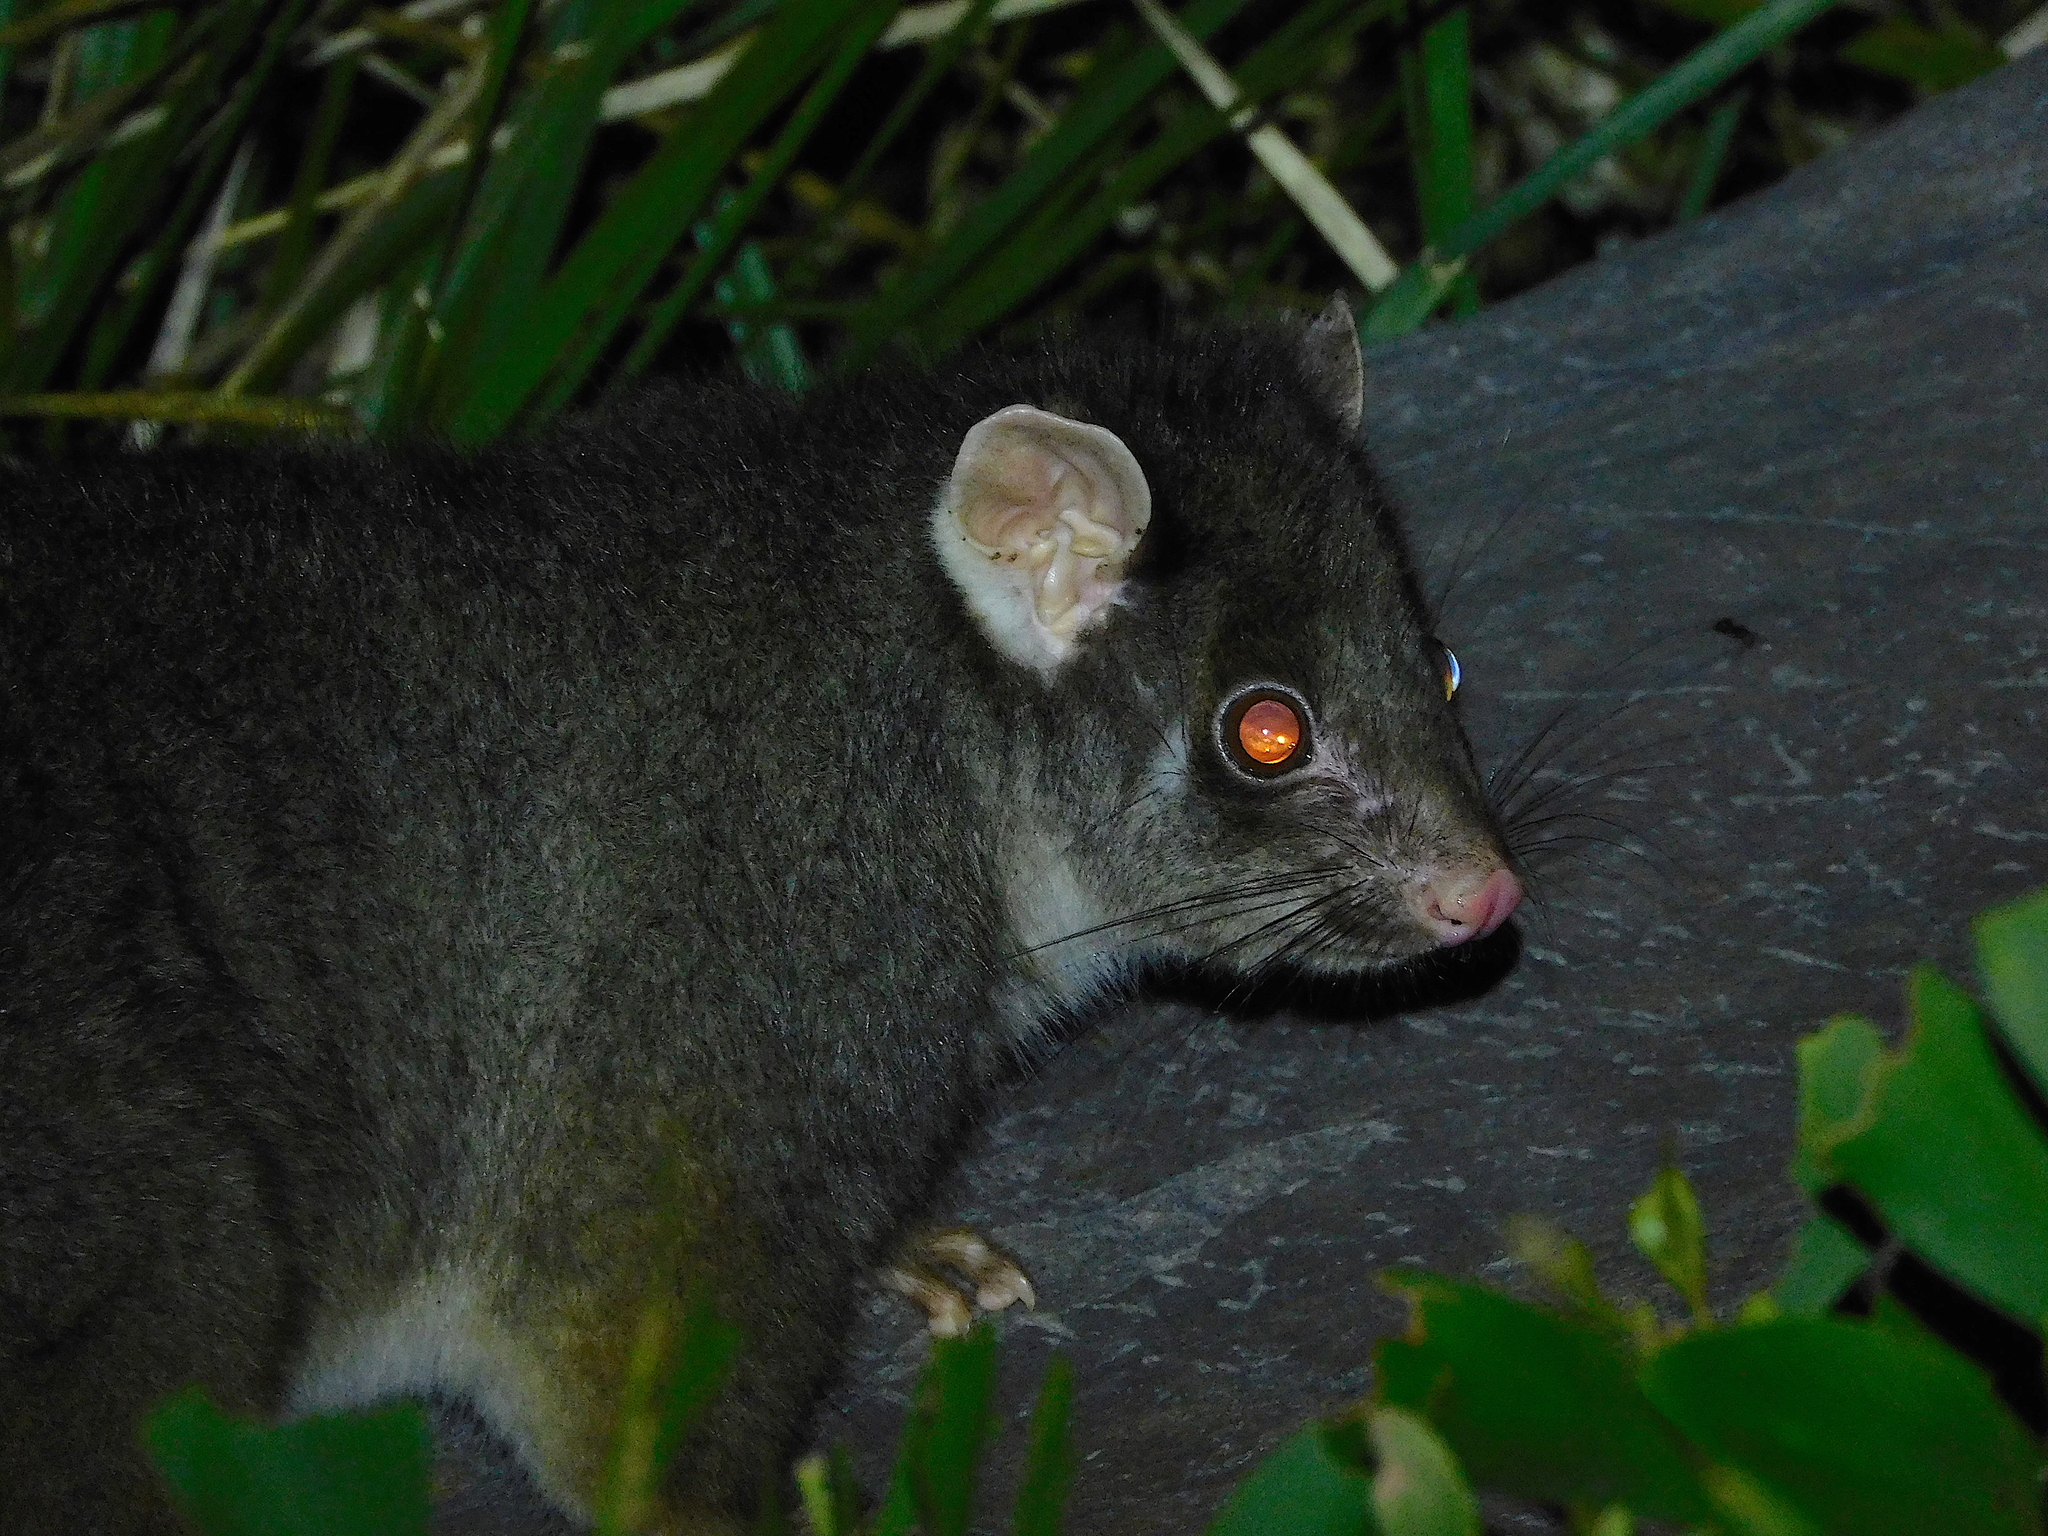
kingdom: Animalia
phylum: Chordata
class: Mammalia
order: Diprotodontia
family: Pseudocheiridae
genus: Pseudocheirus
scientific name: Pseudocheirus peregrinus
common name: Common ringtail possum
